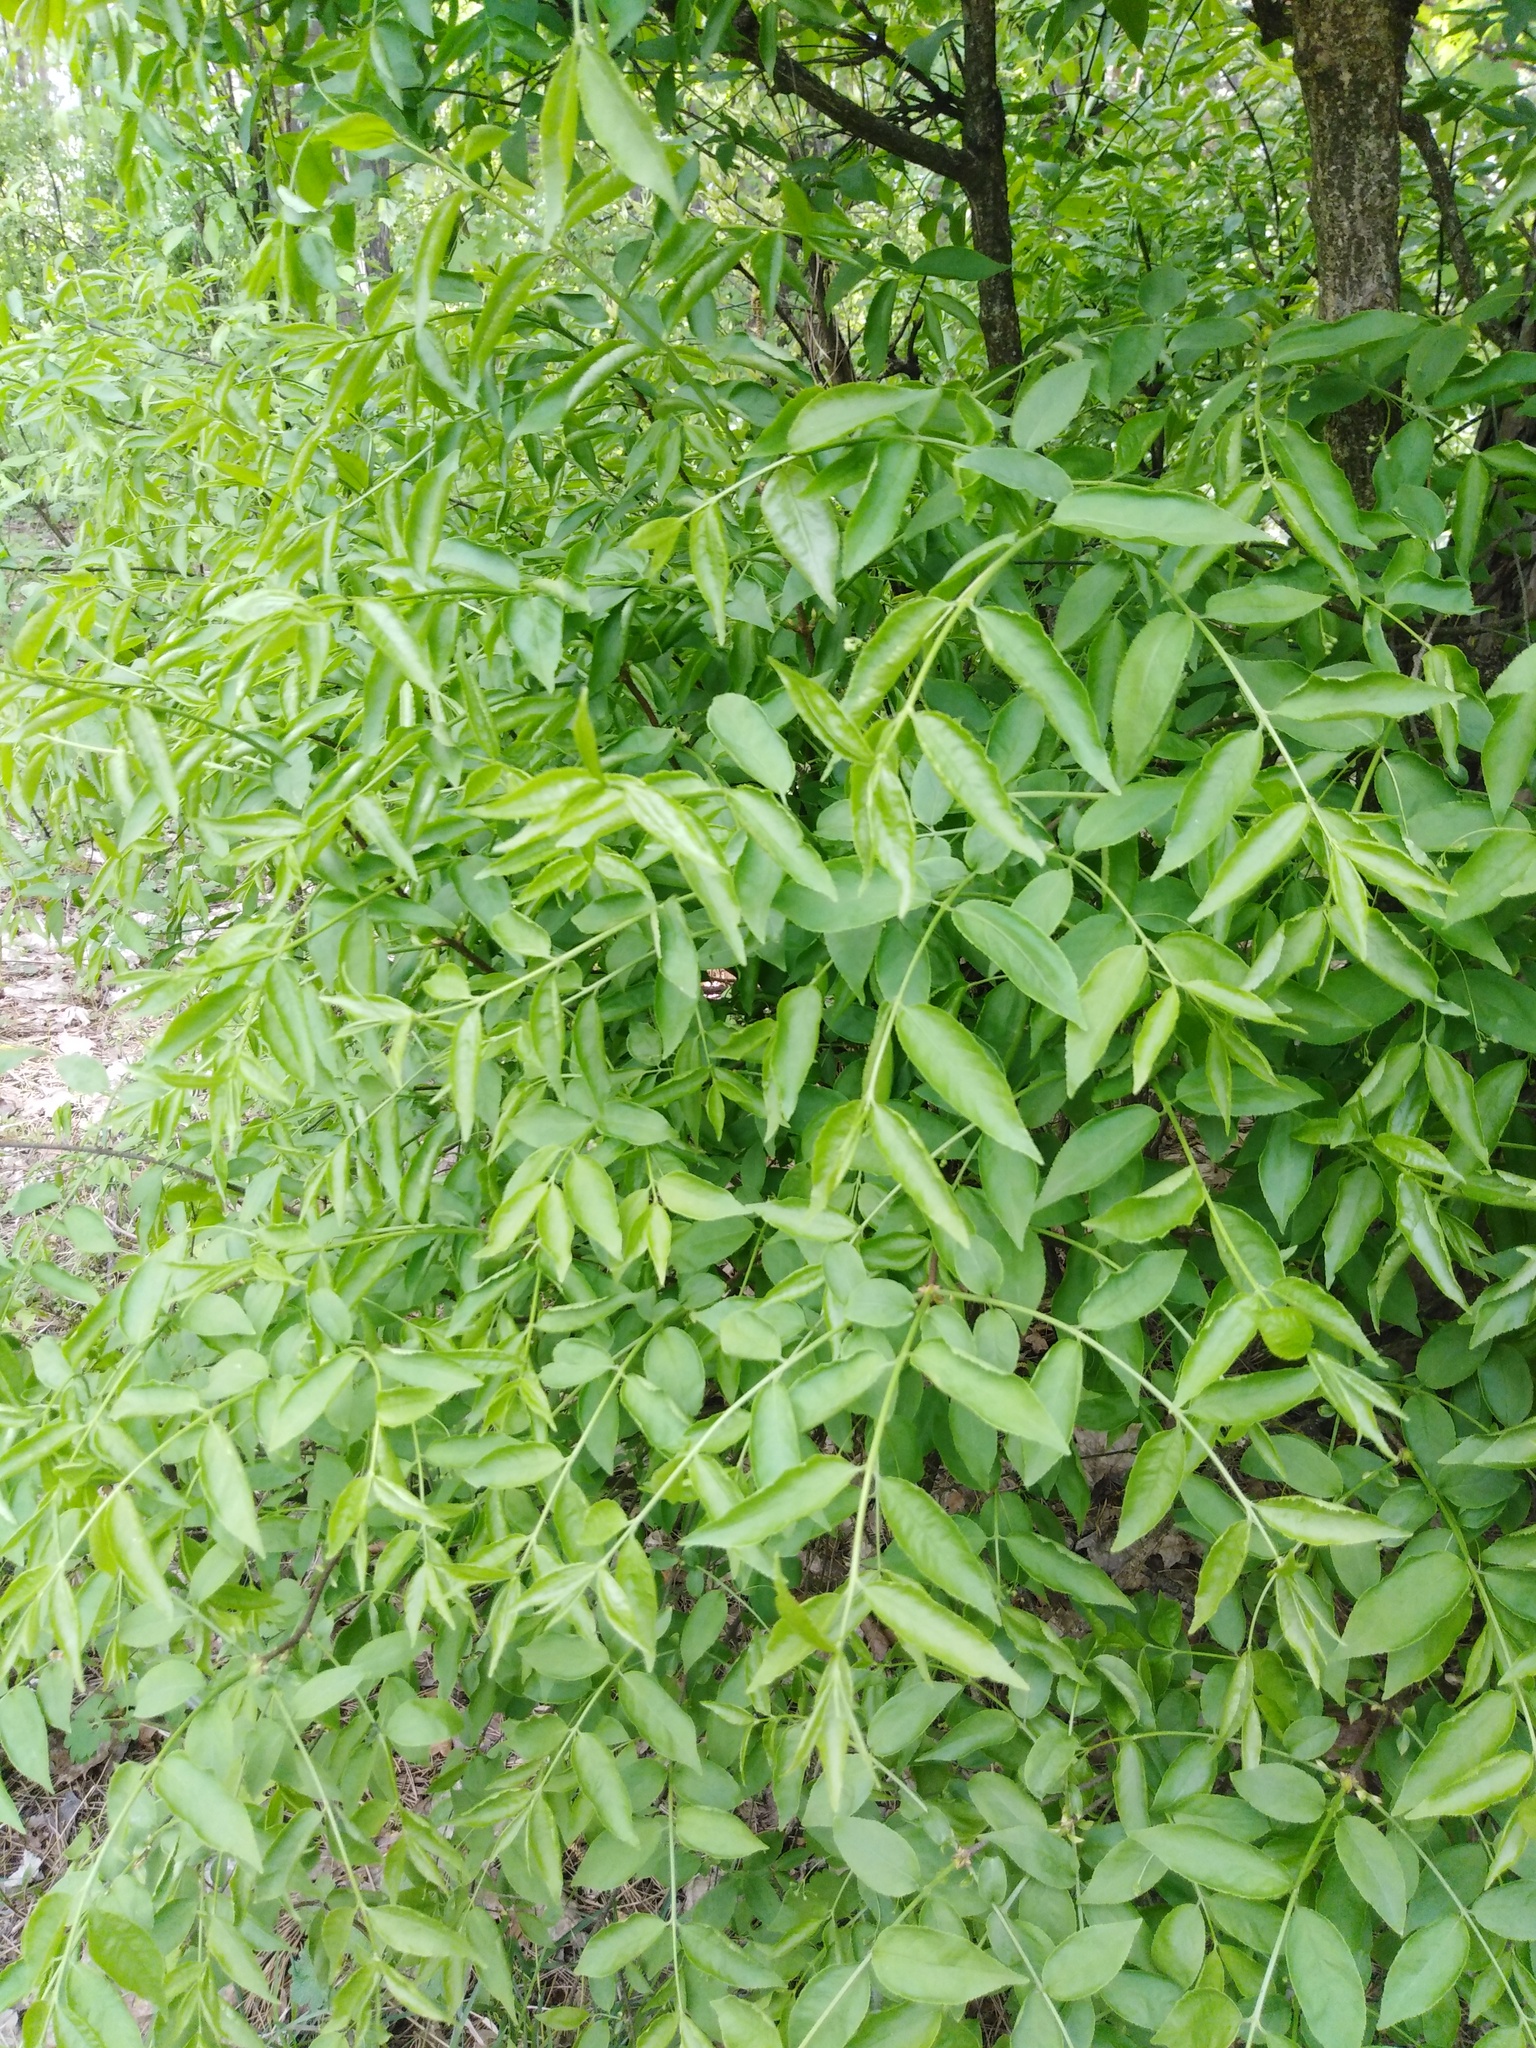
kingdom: Plantae
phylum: Tracheophyta
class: Magnoliopsida
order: Celastrales
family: Celastraceae
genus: Euonymus
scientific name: Euonymus verrucosus
